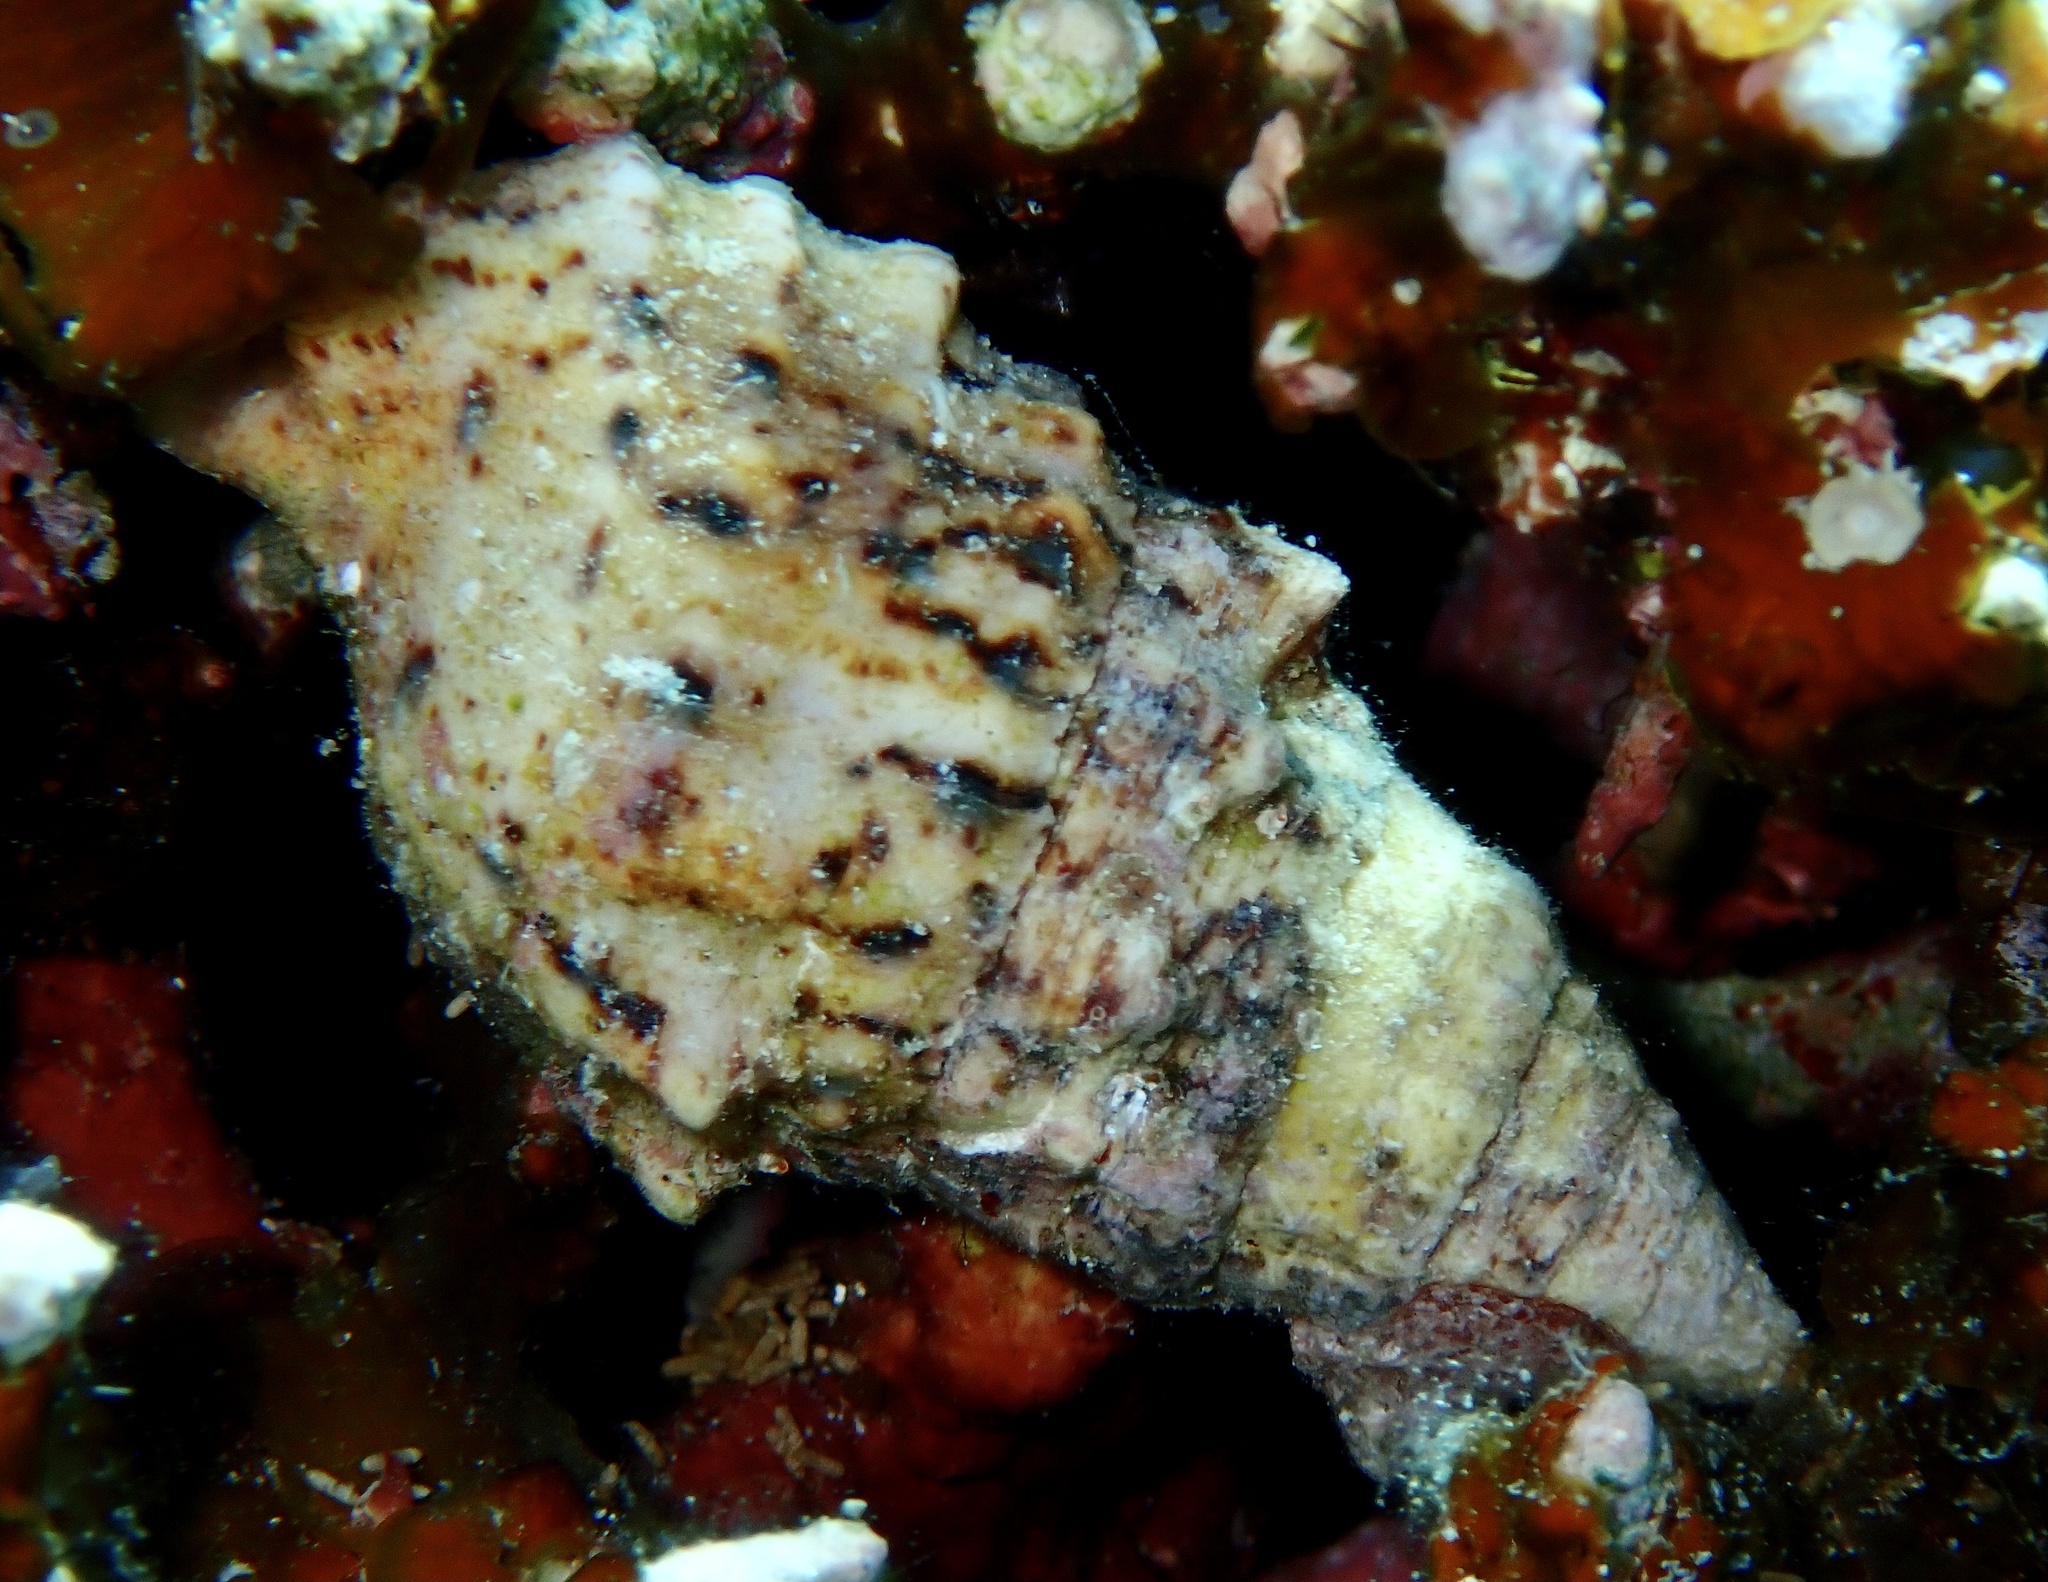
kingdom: Animalia
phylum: Mollusca
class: Gastropoda
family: Cerithiidae
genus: Cerithium
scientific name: Cerithium echinatum
